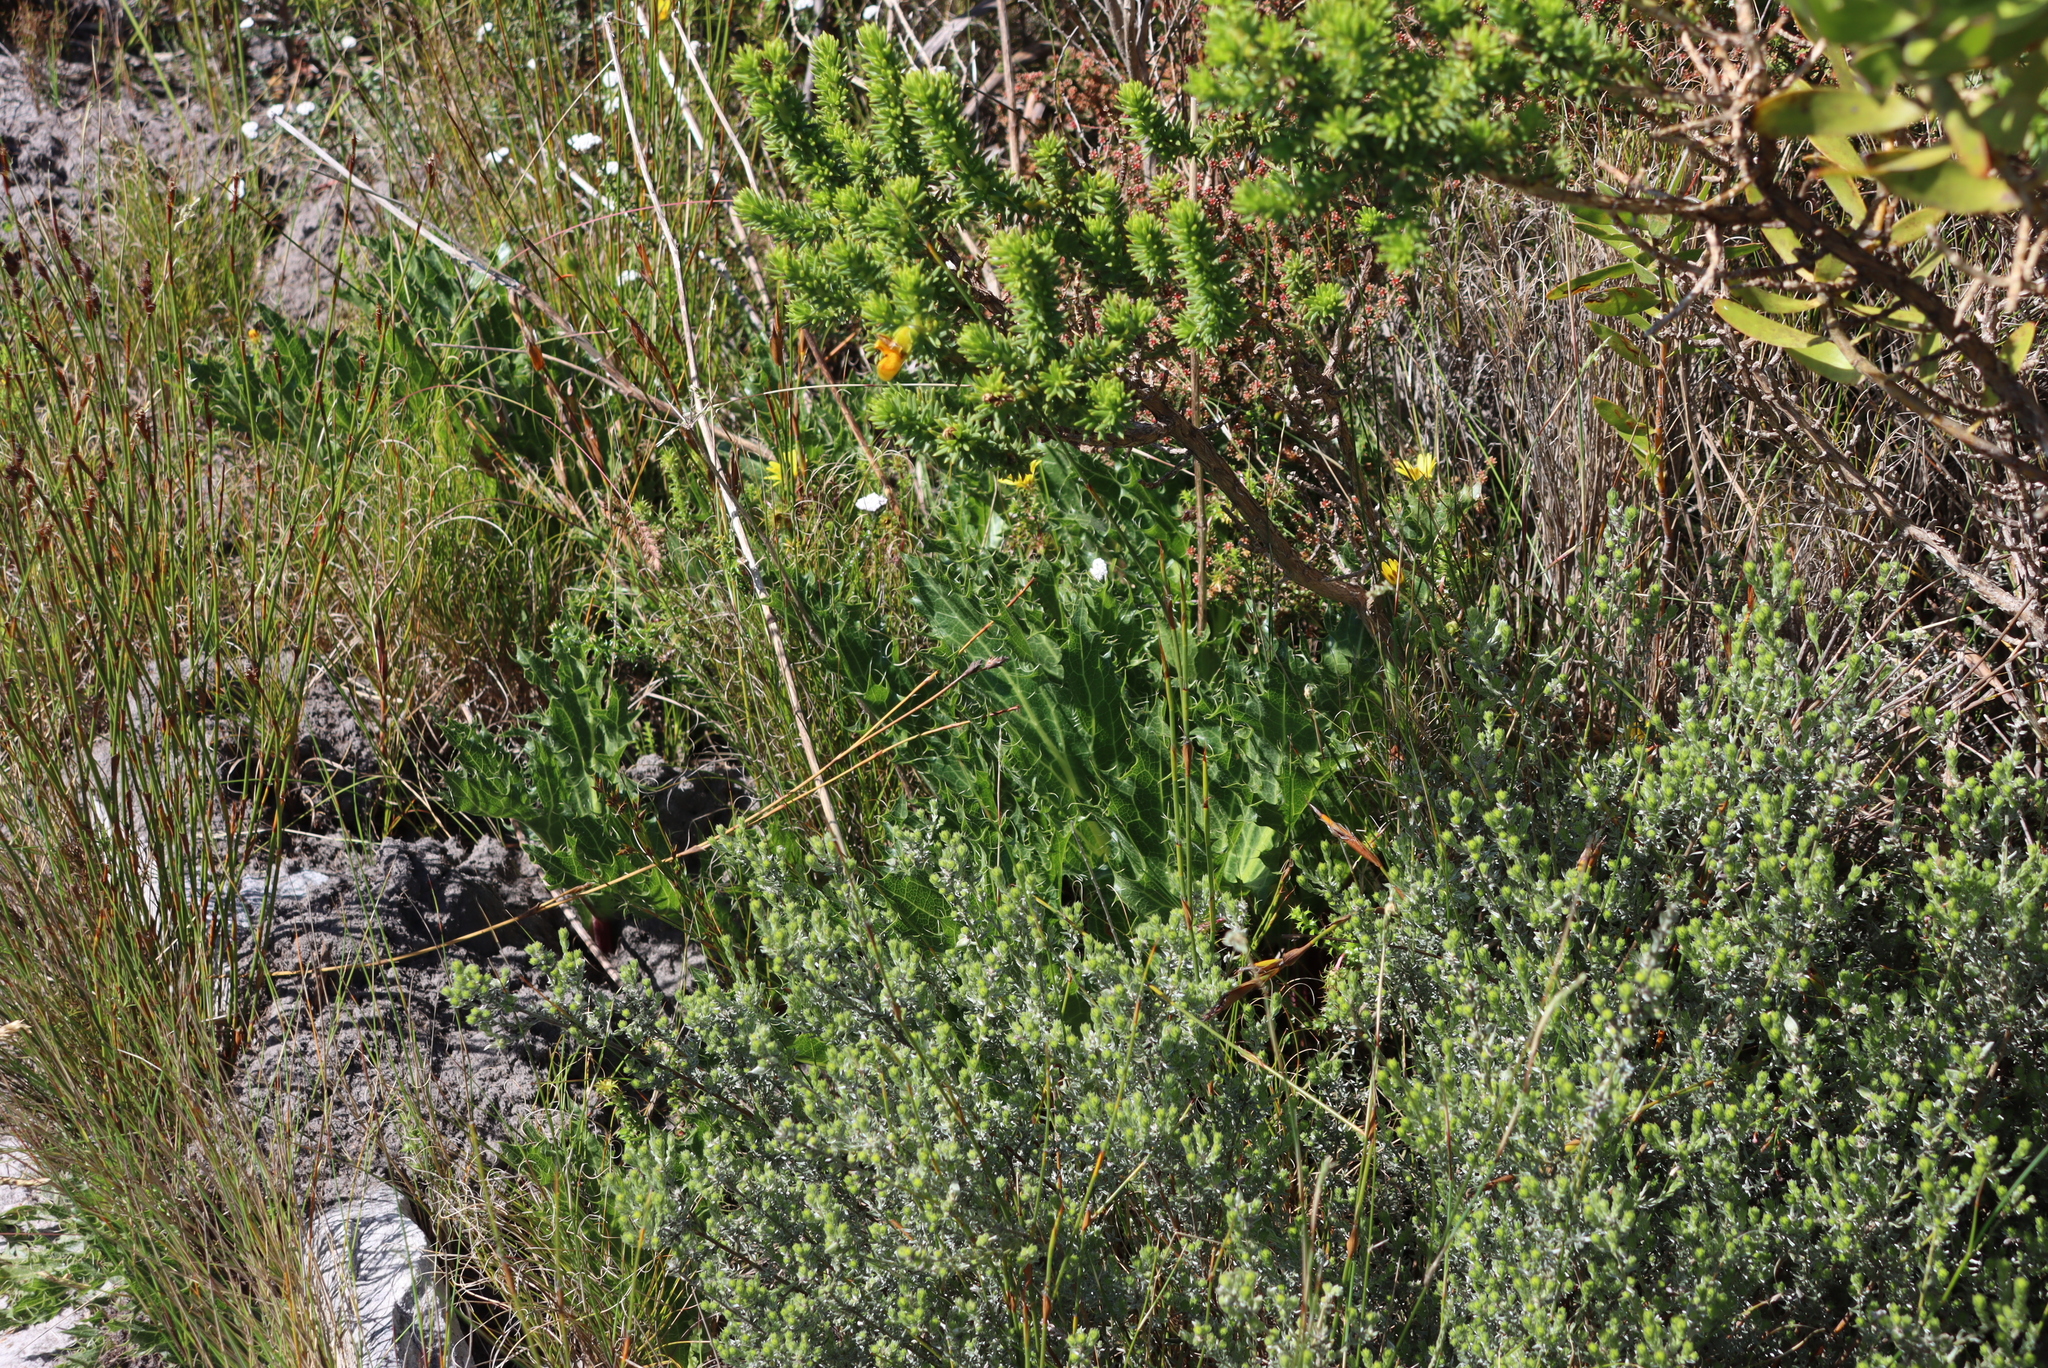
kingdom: Plantae
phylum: Tracheophyta
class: Magnoliopsida
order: Apiales
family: Apiaceae
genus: Lichtensteinia
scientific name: Lichtensteinia lacera
